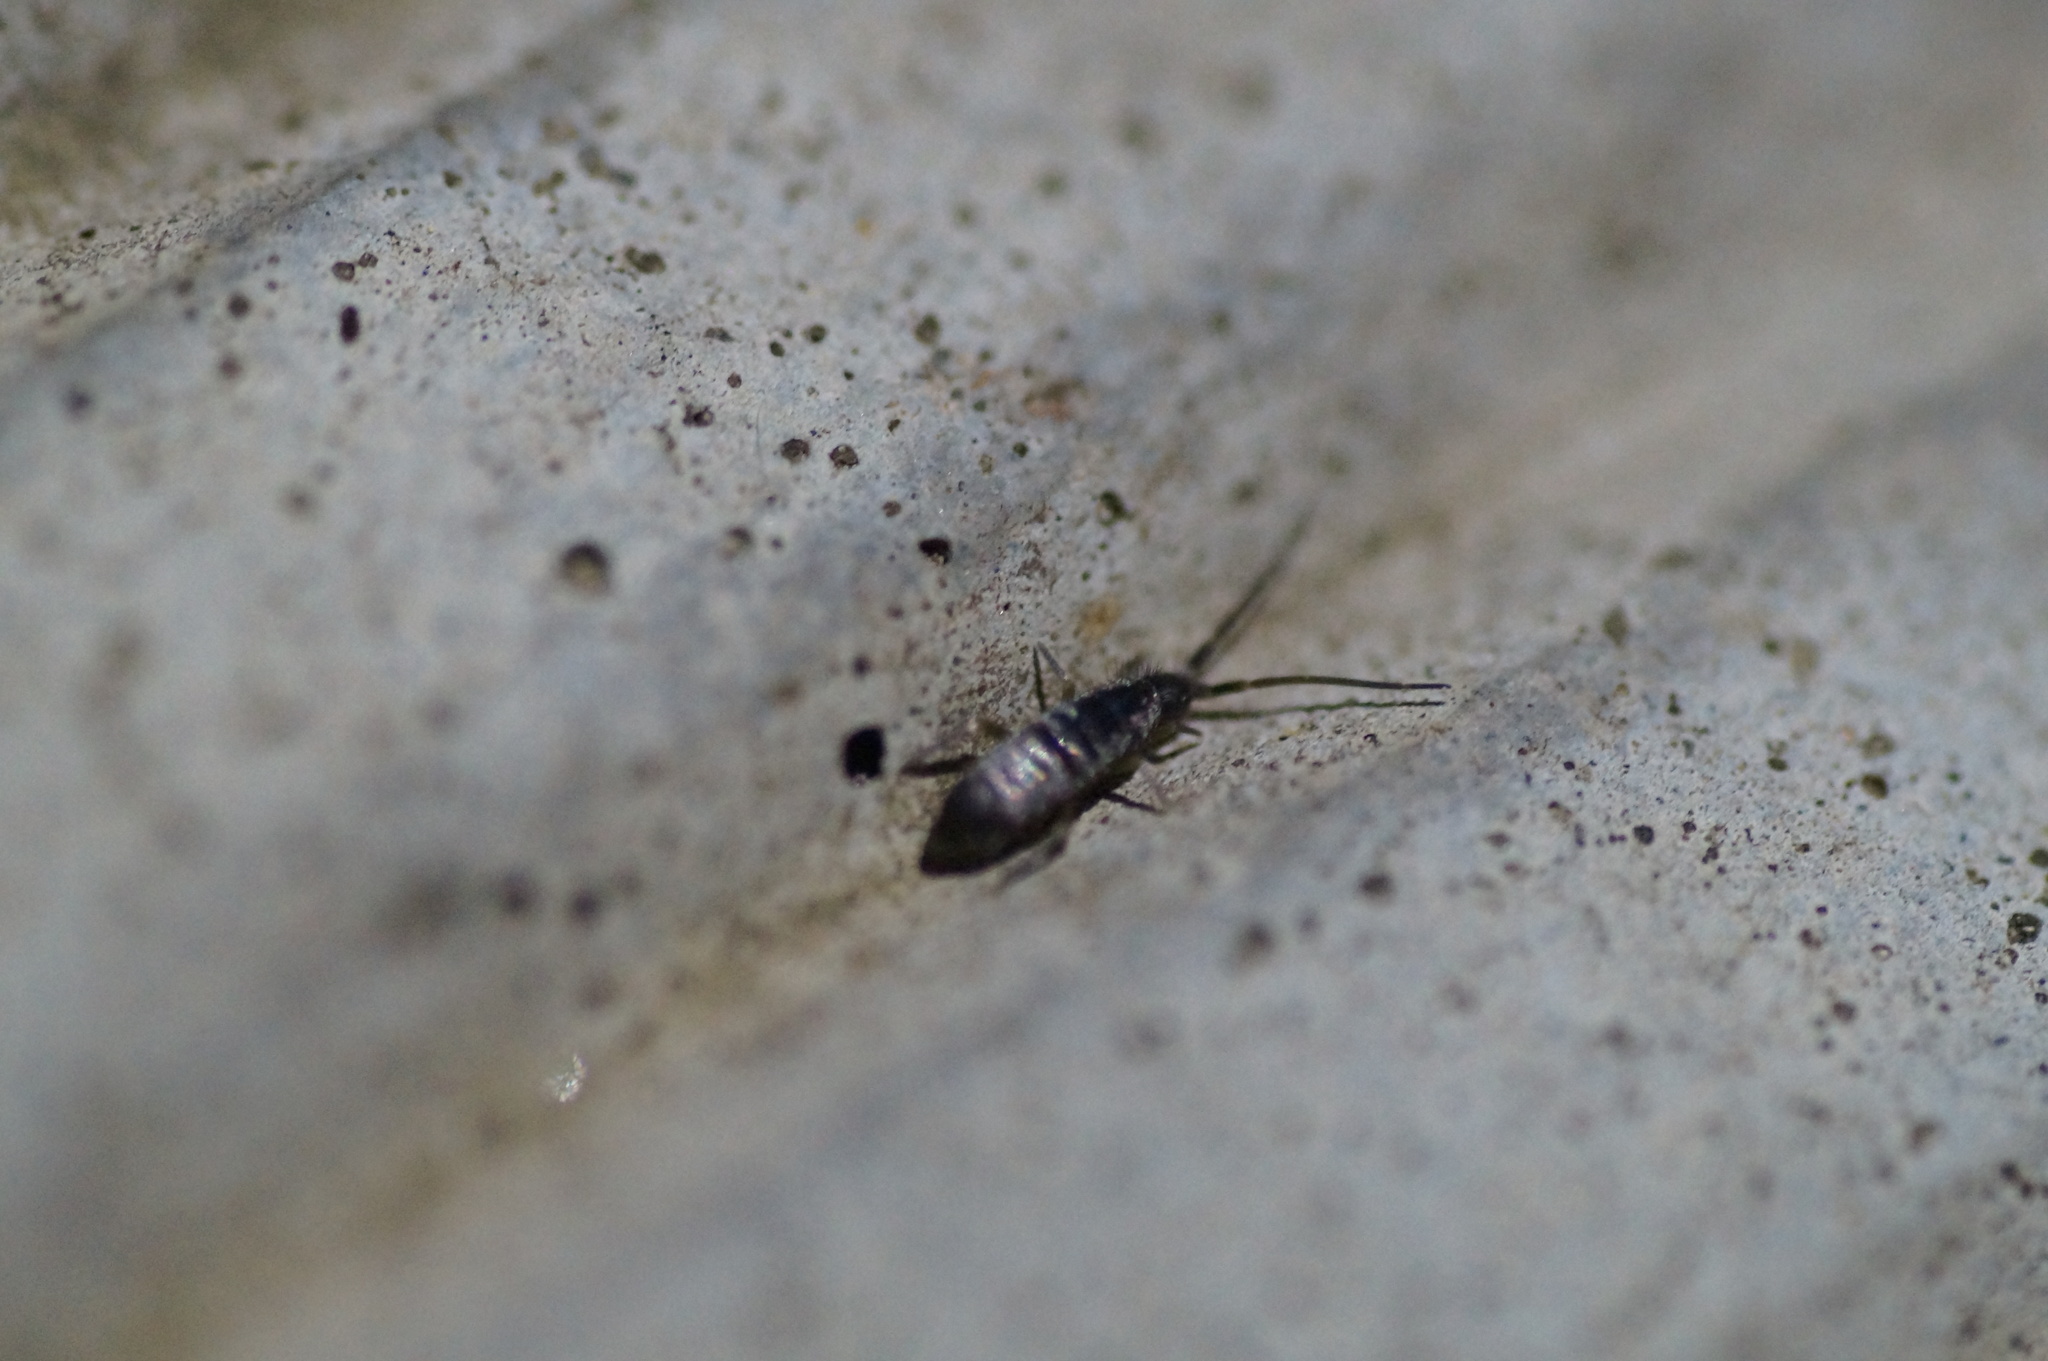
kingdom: Animalia
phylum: Arthropoda
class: Collembola
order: Entomobryomorpha
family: Tomoceridae
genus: Tomocerus
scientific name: Tomocerus
